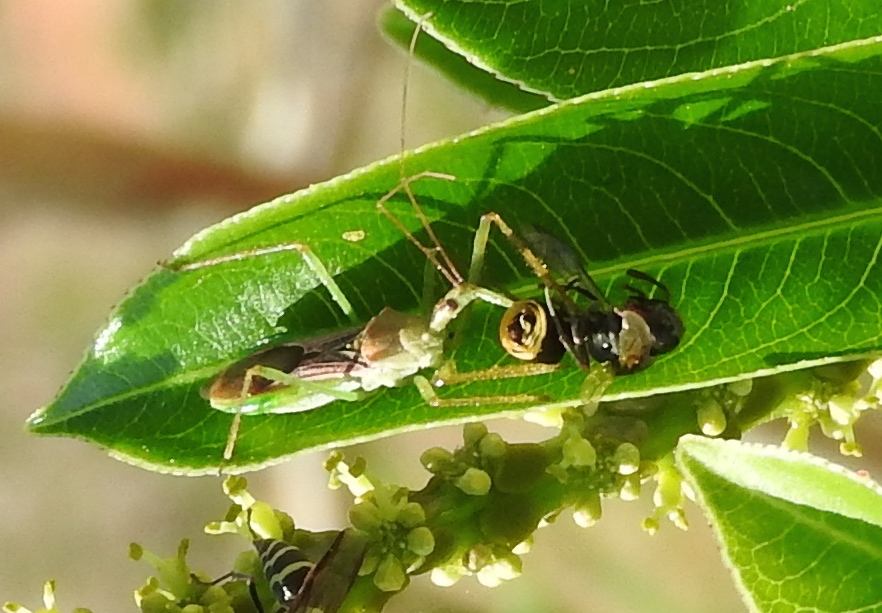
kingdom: Animalia
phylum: Arthropoda
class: Insecta
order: Hemiptera
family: Reduviidae
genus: Zelus
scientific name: Zelus
